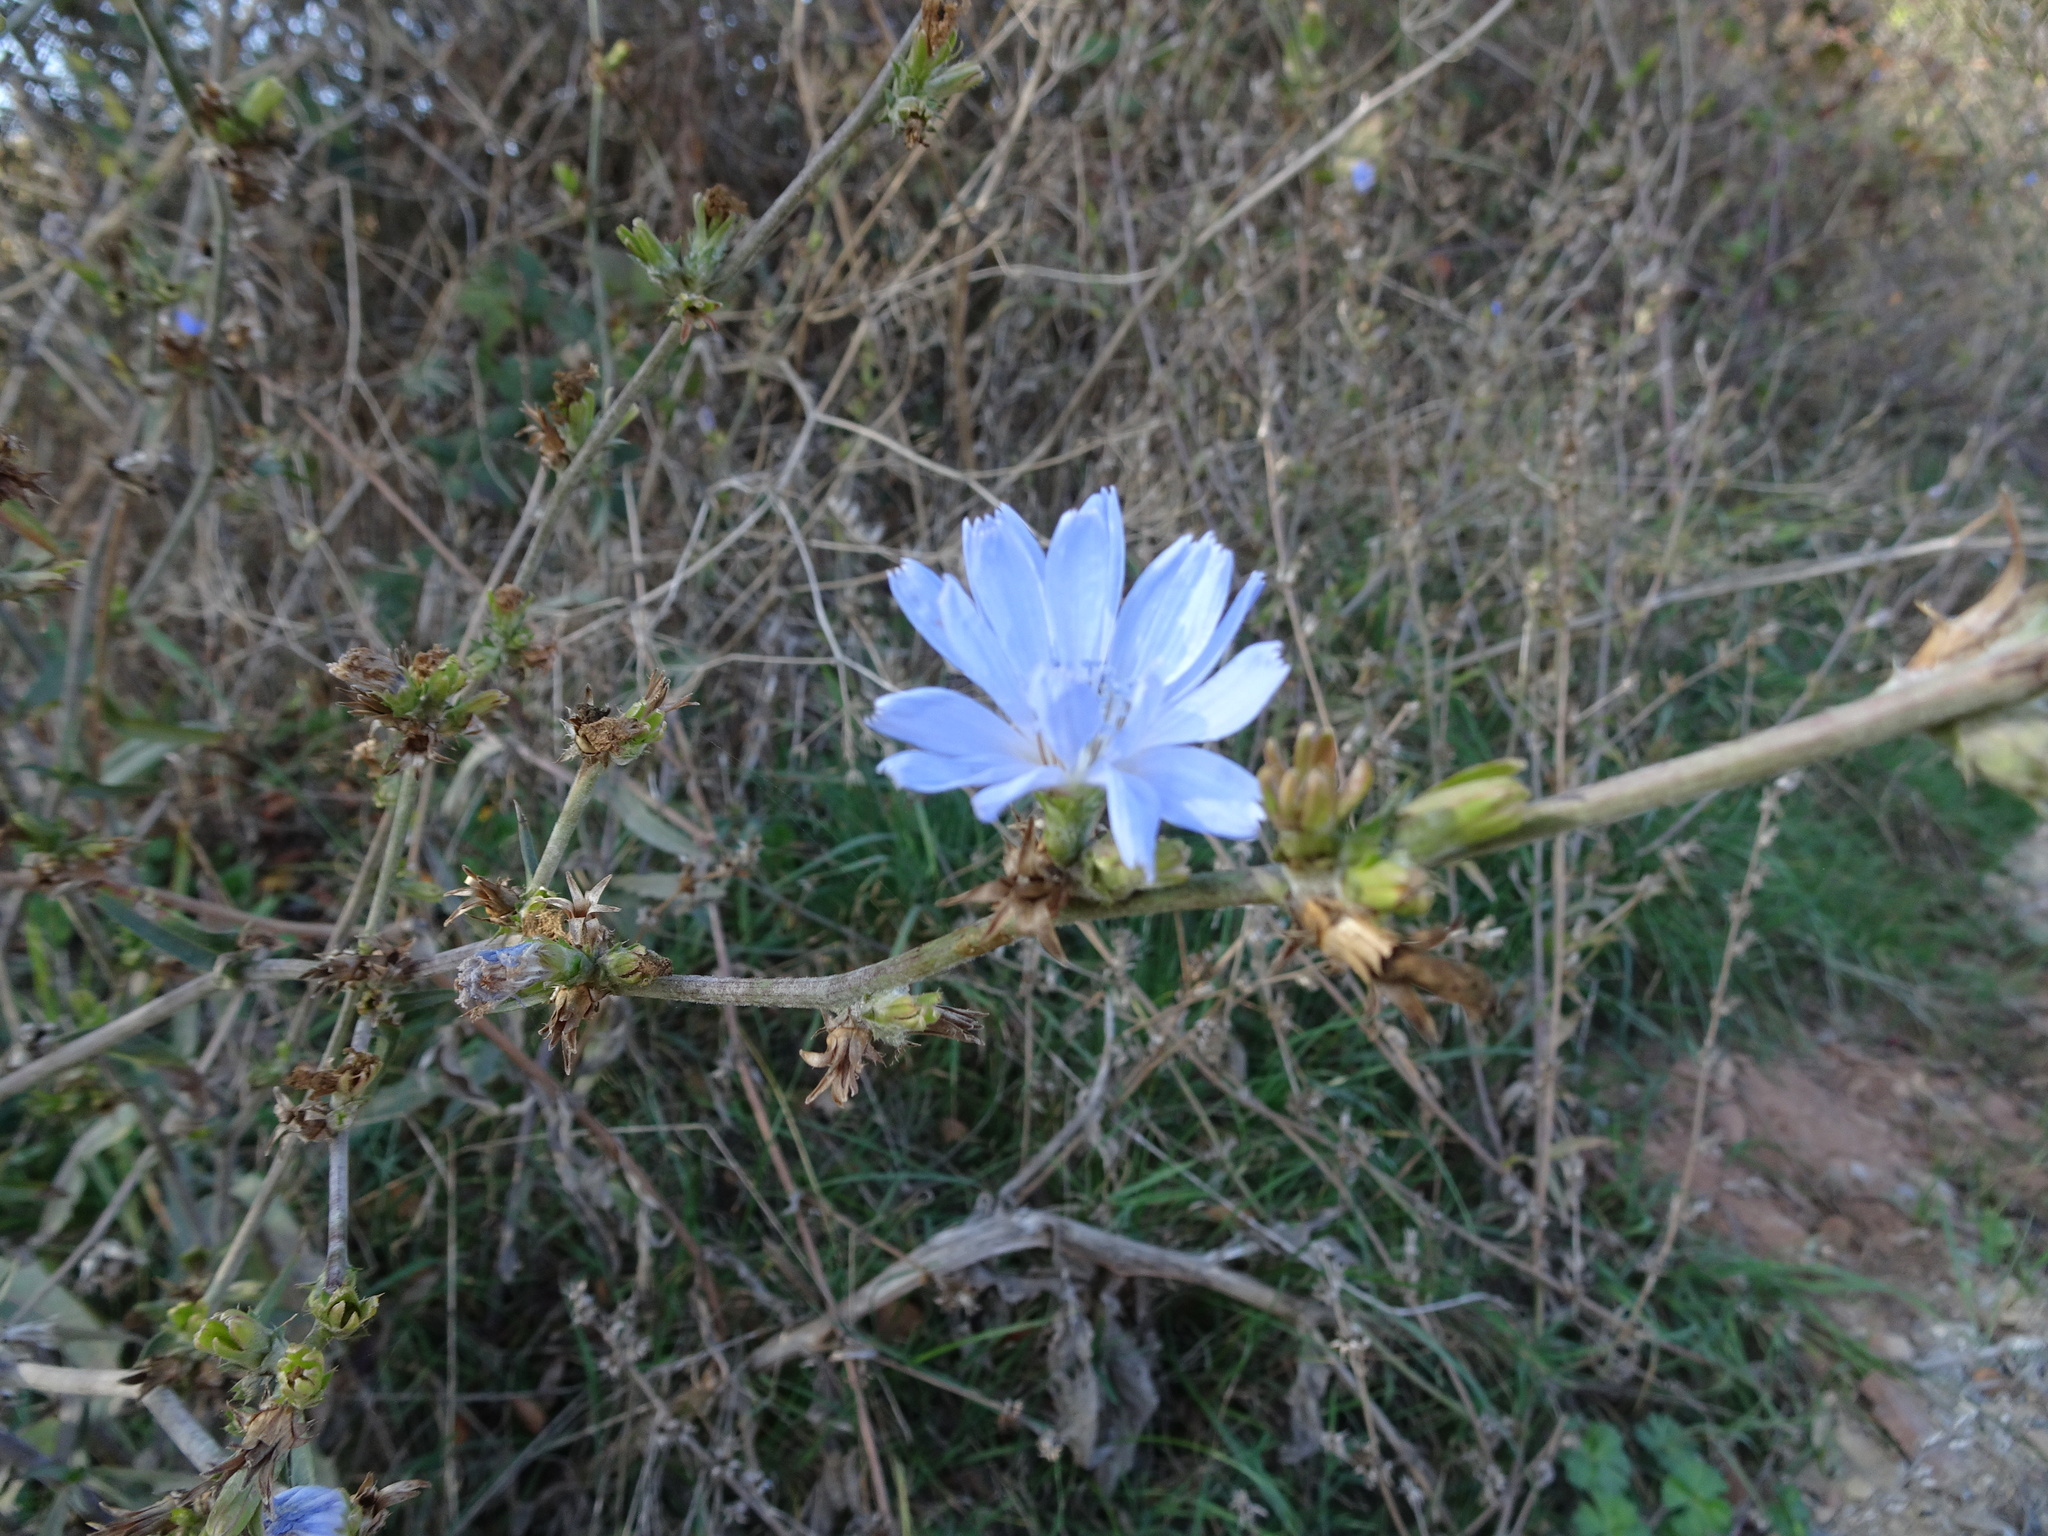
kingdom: Plantae
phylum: Tracheophyta
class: Magnoliopsida
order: Asterales
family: Asteraceae
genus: Cichorium
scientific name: Cichorium intybus
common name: Chicory
